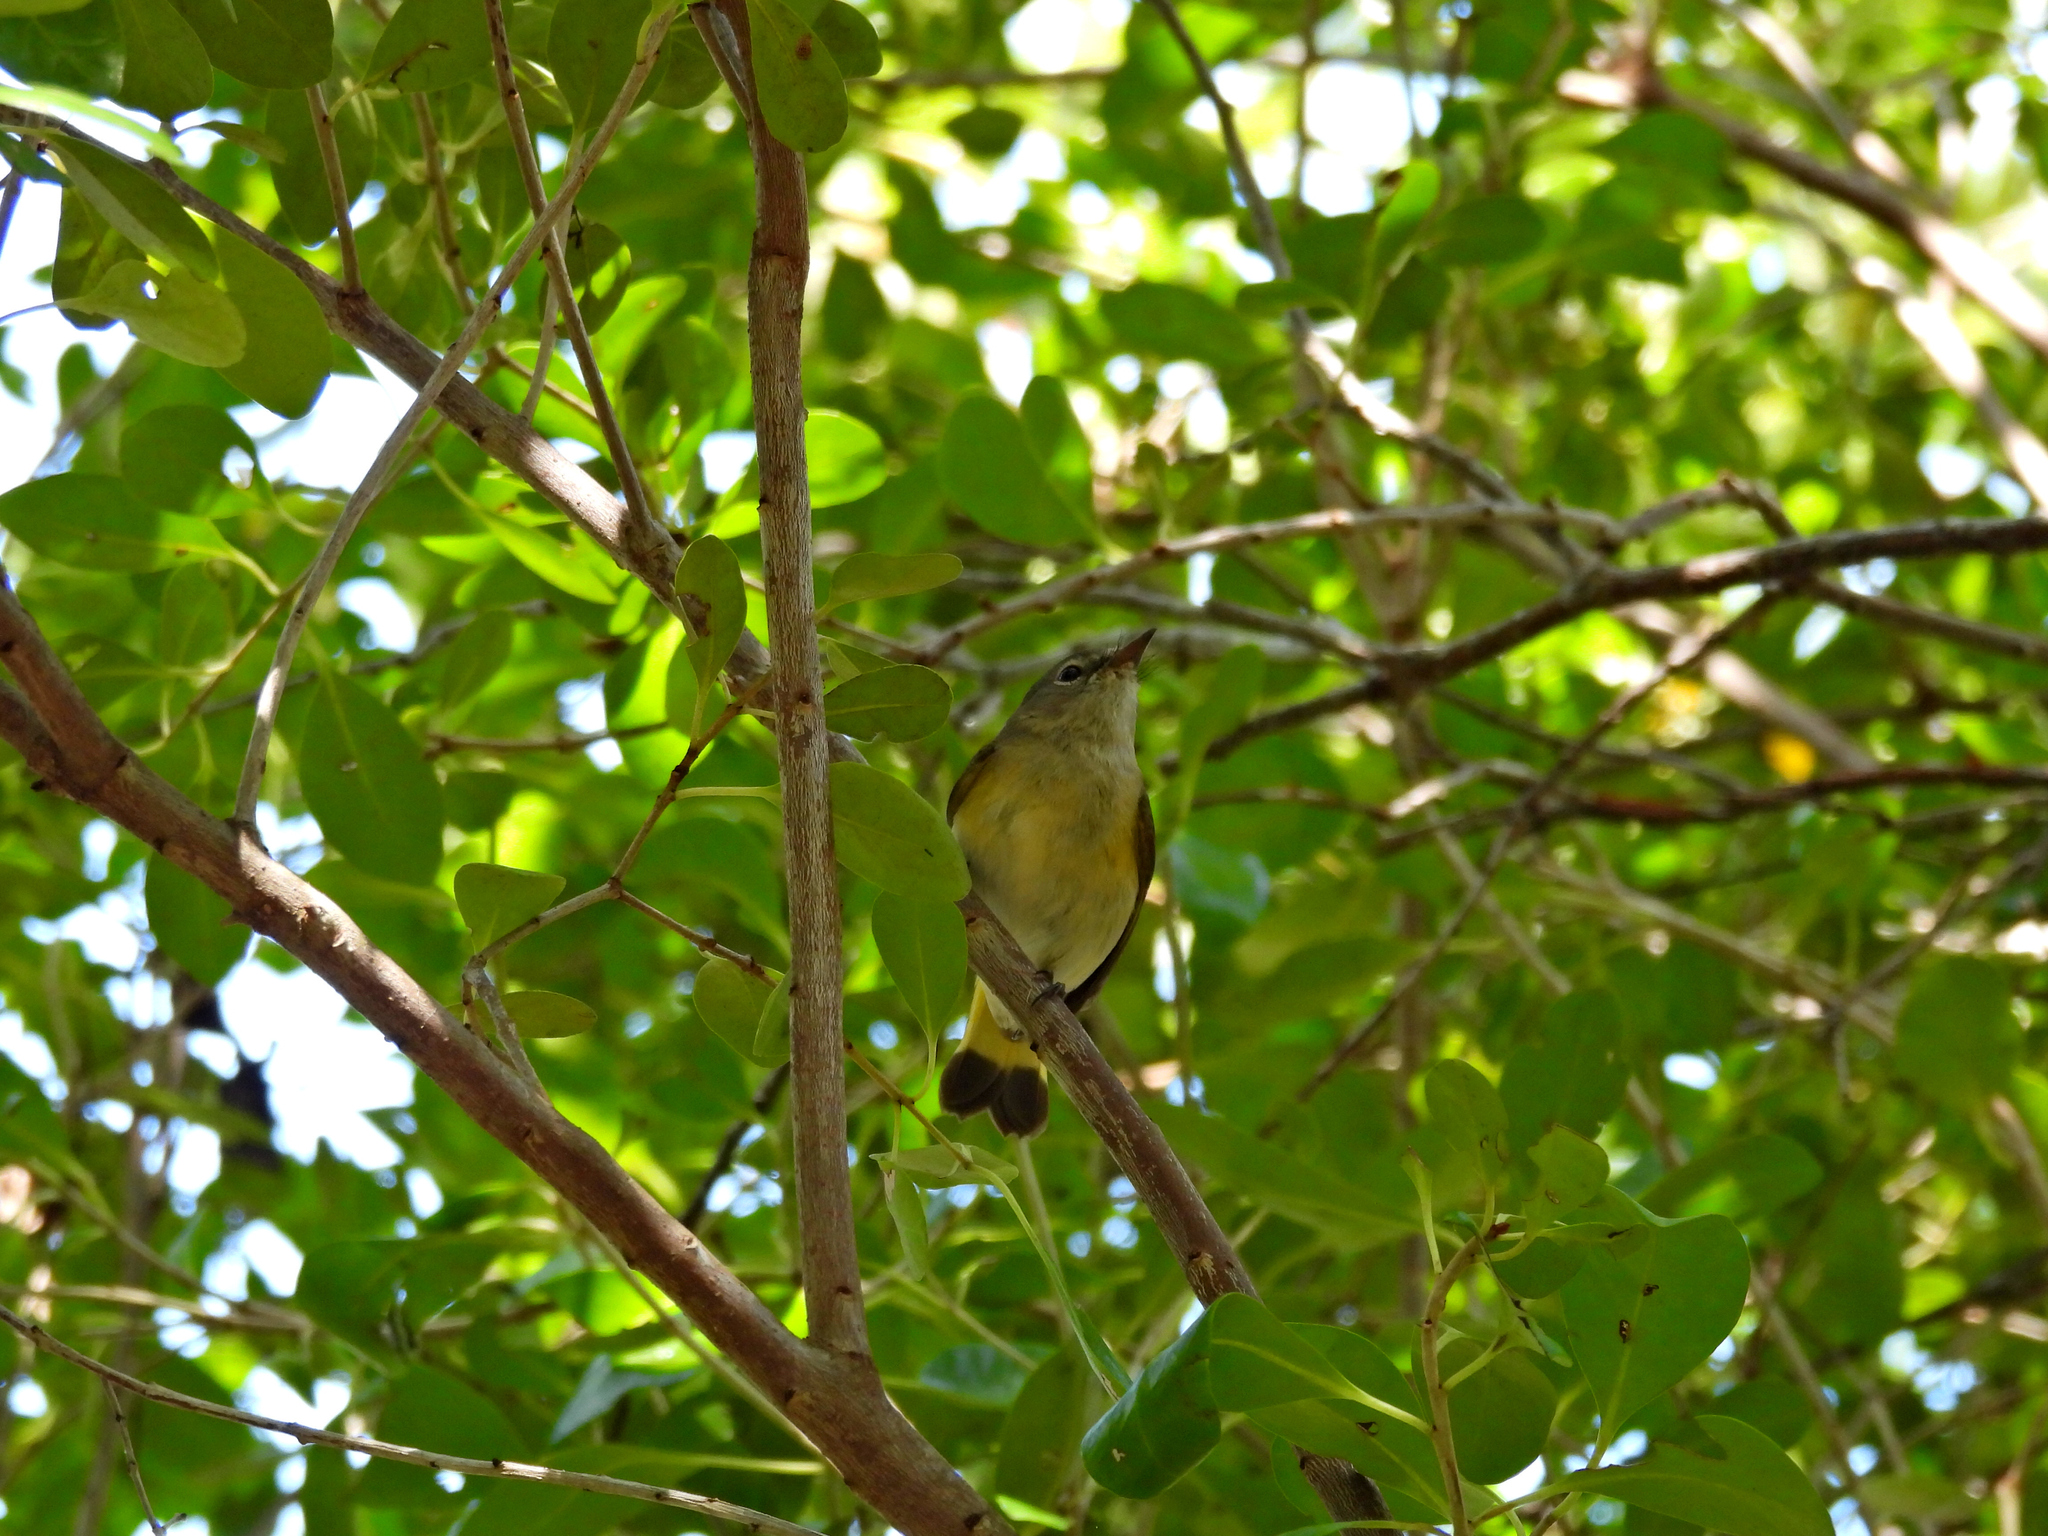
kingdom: Animalia
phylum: Chordata
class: Aves
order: Passeriformes
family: Parulidae
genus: Setophaga
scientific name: Setophaga ruticilla
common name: American redstart
